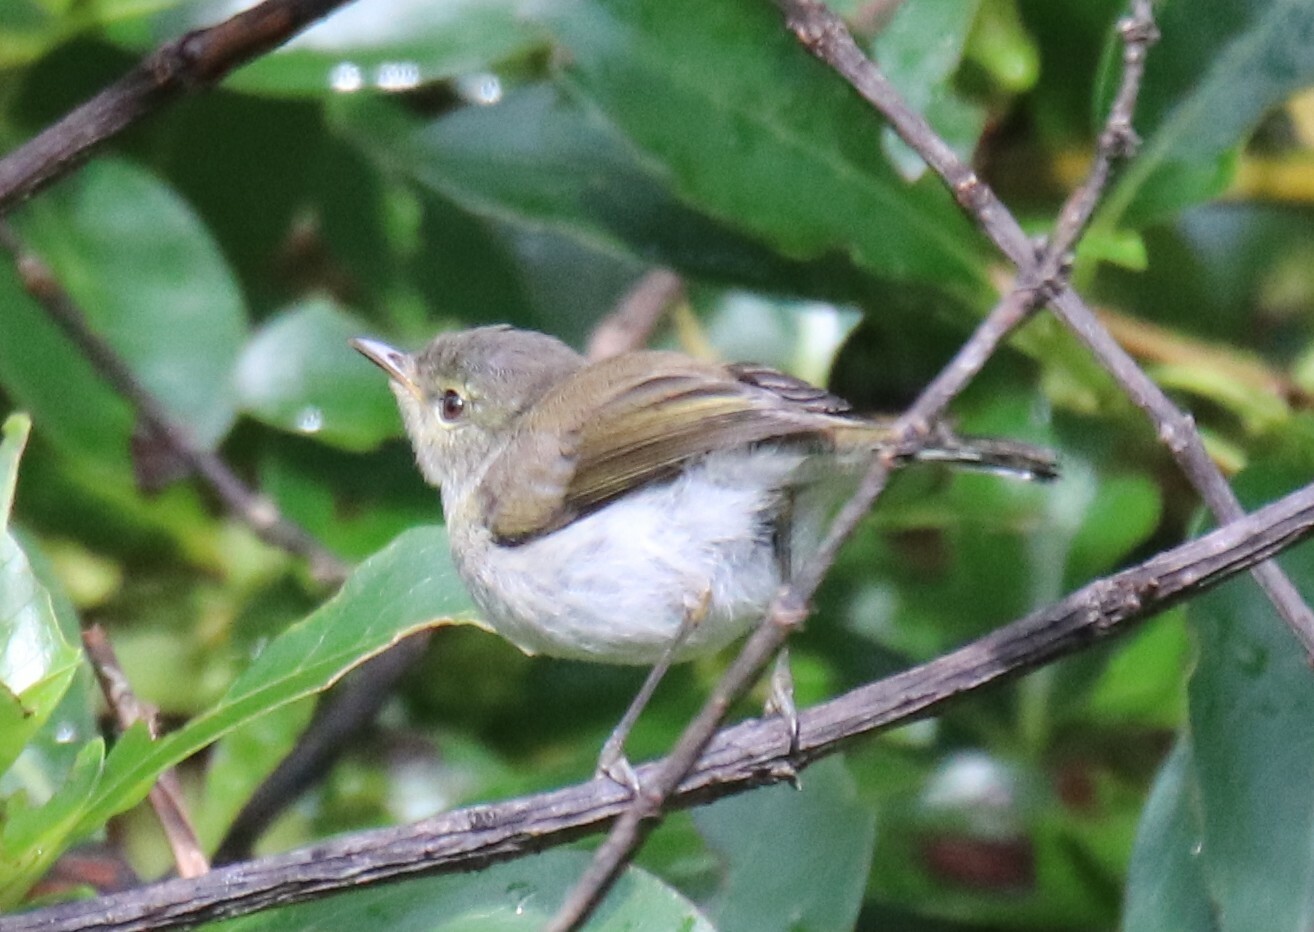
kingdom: Animalia
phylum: Chordata
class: Aves
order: Passeriformes
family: Acanthizidae
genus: Gerygone
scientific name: Gerygone igata
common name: Grey gerygone
